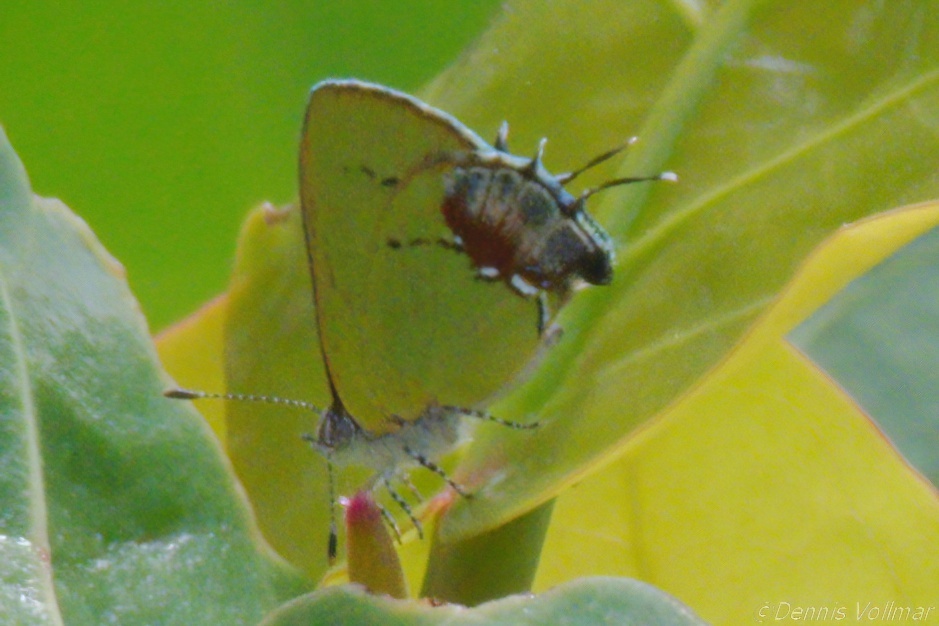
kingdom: Animalia
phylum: Arthropoda
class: Insecta
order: Lepidoptera
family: Lycaenidae
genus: Thecla
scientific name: Thecla maesites
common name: Verde azul hairstreak
